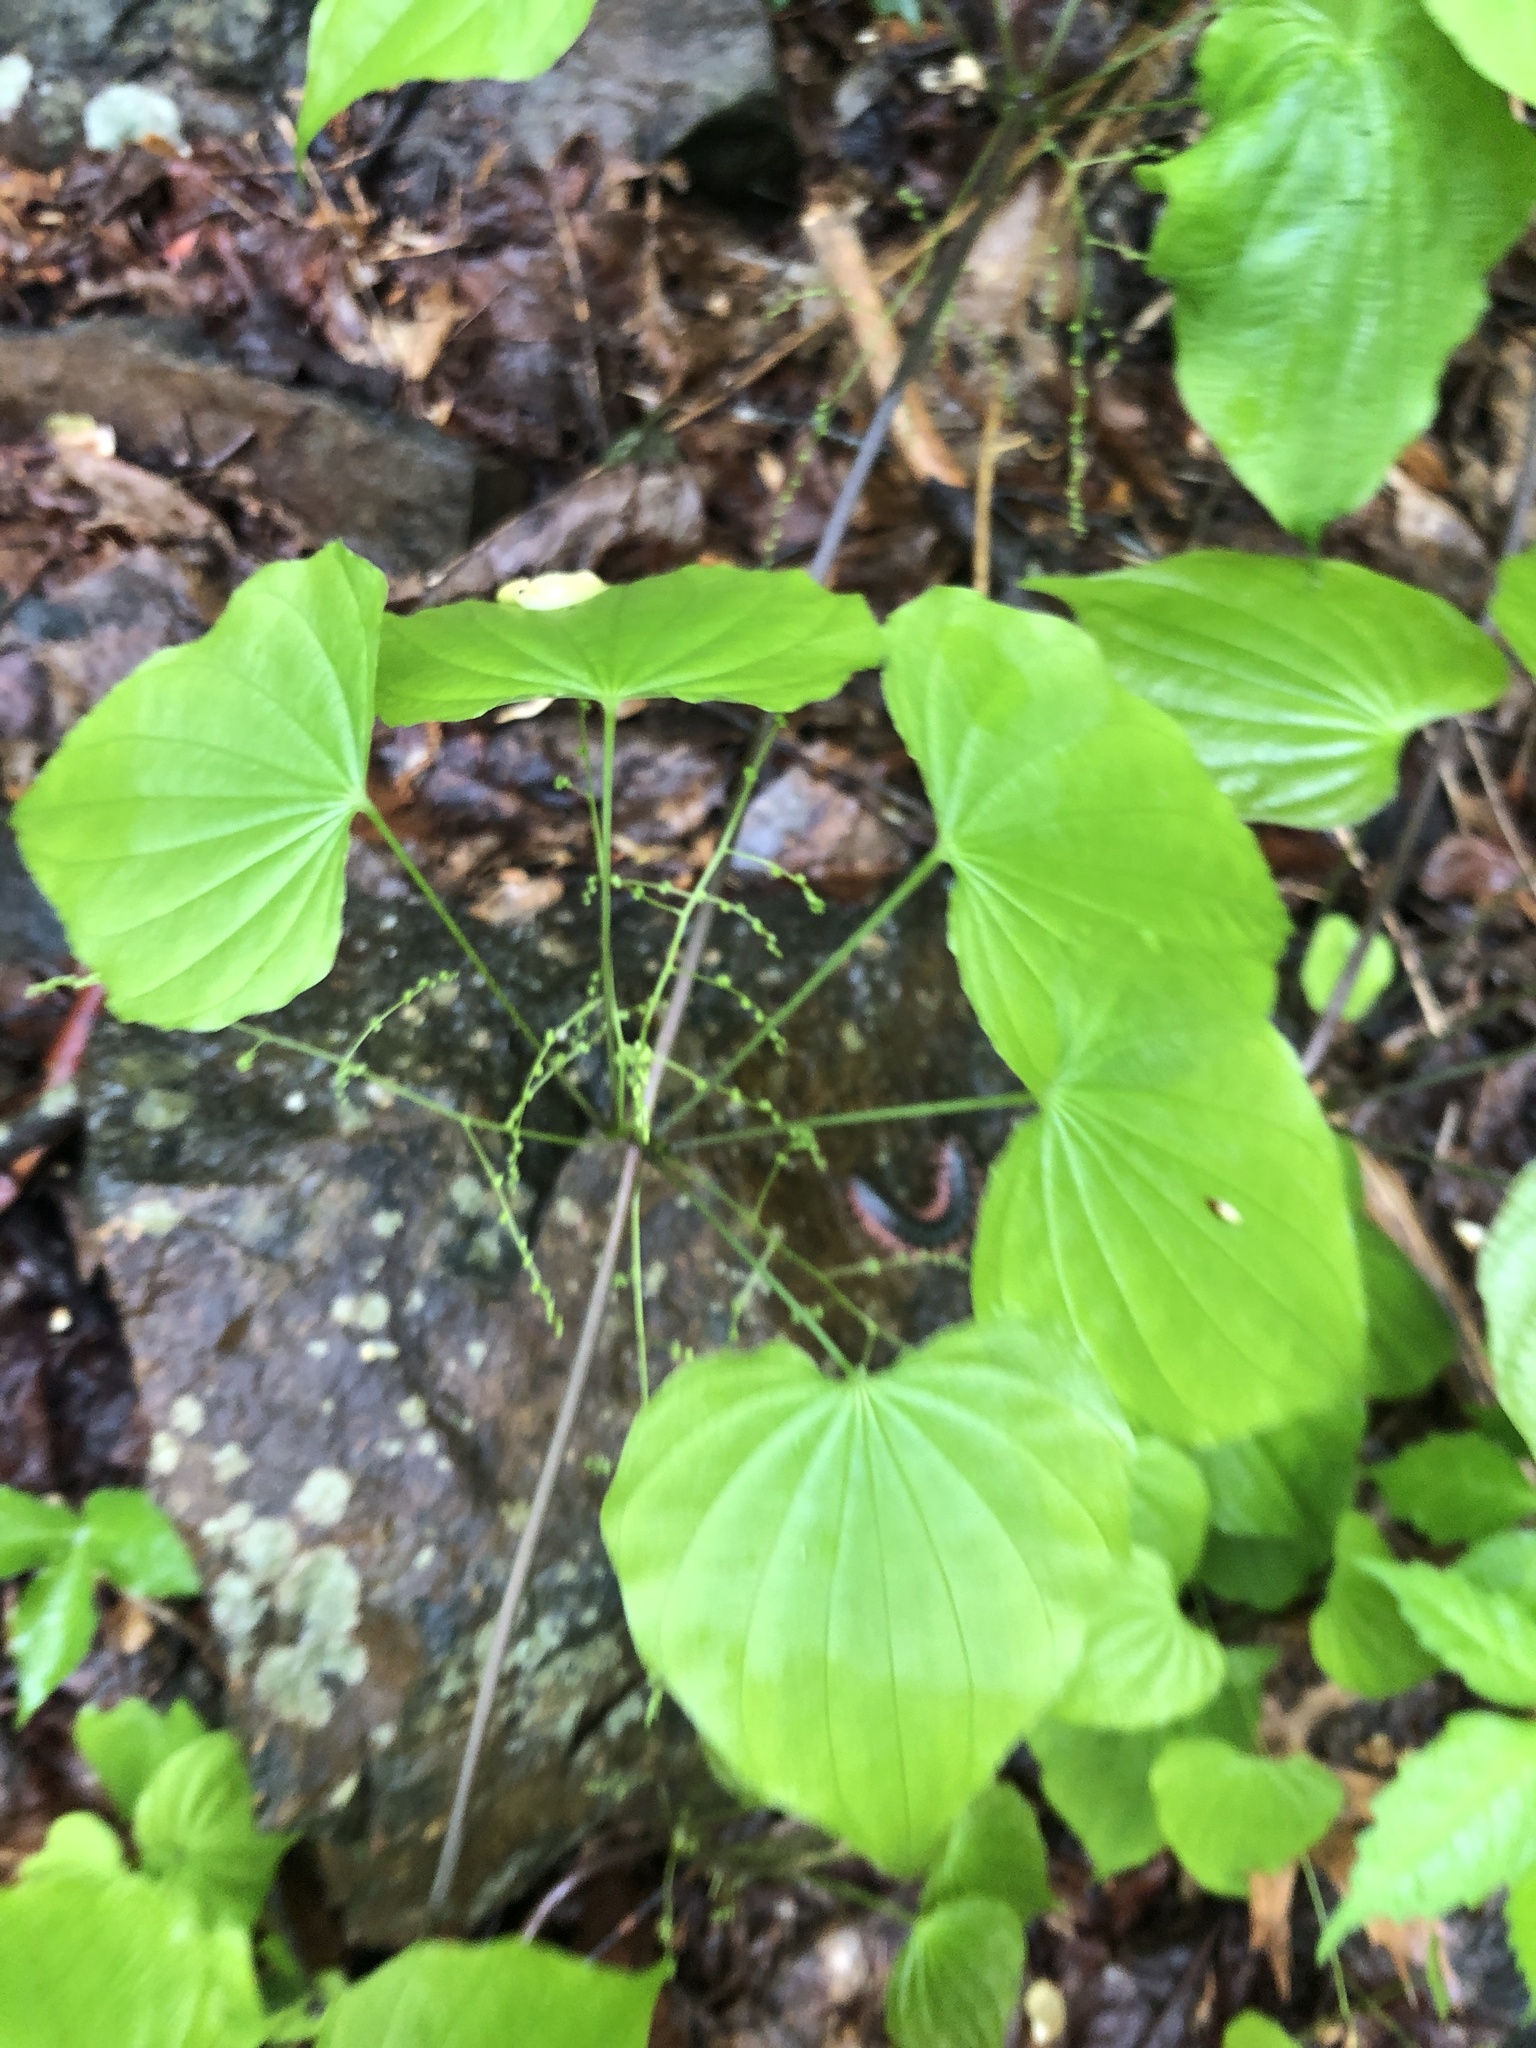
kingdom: Plantae
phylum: Tracheophyta
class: Liliopsida
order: Dioscoreales
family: Dioscoreaceae
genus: Dioscorea
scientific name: Dioscorea villosa
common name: Wild yam
